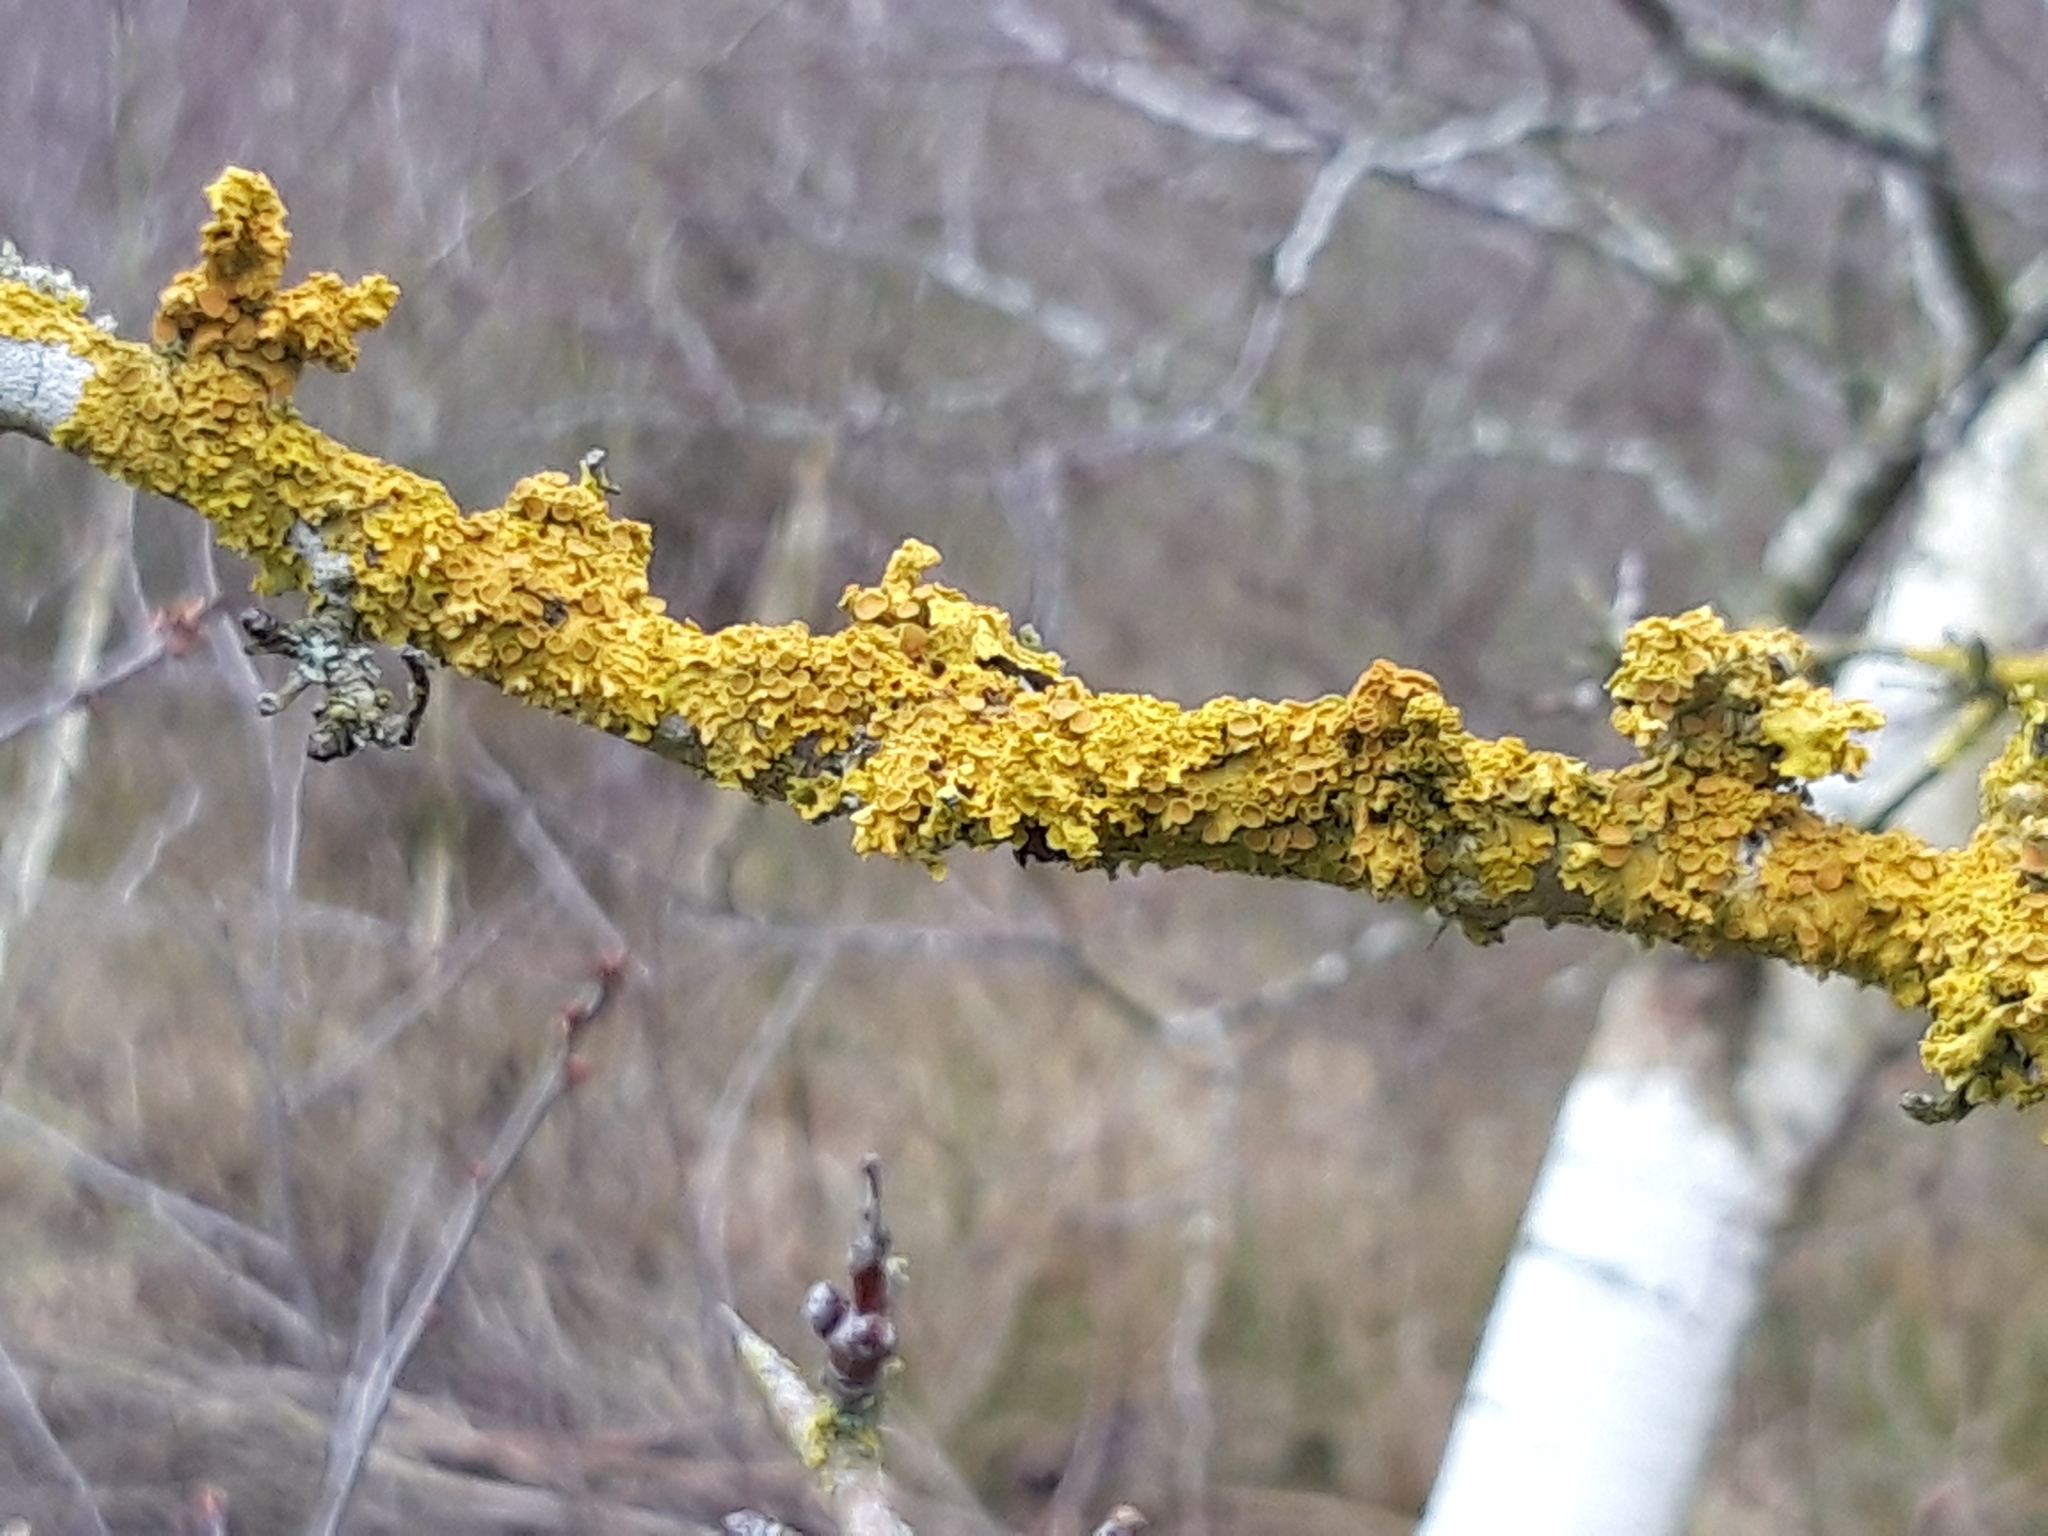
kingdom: Fungi
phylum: Ascomycota
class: Lecanoromycetes
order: Teloschistales
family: Teloschistaceae
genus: Xanthoria
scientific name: Xanthoria parietina
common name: Common orange lichen
